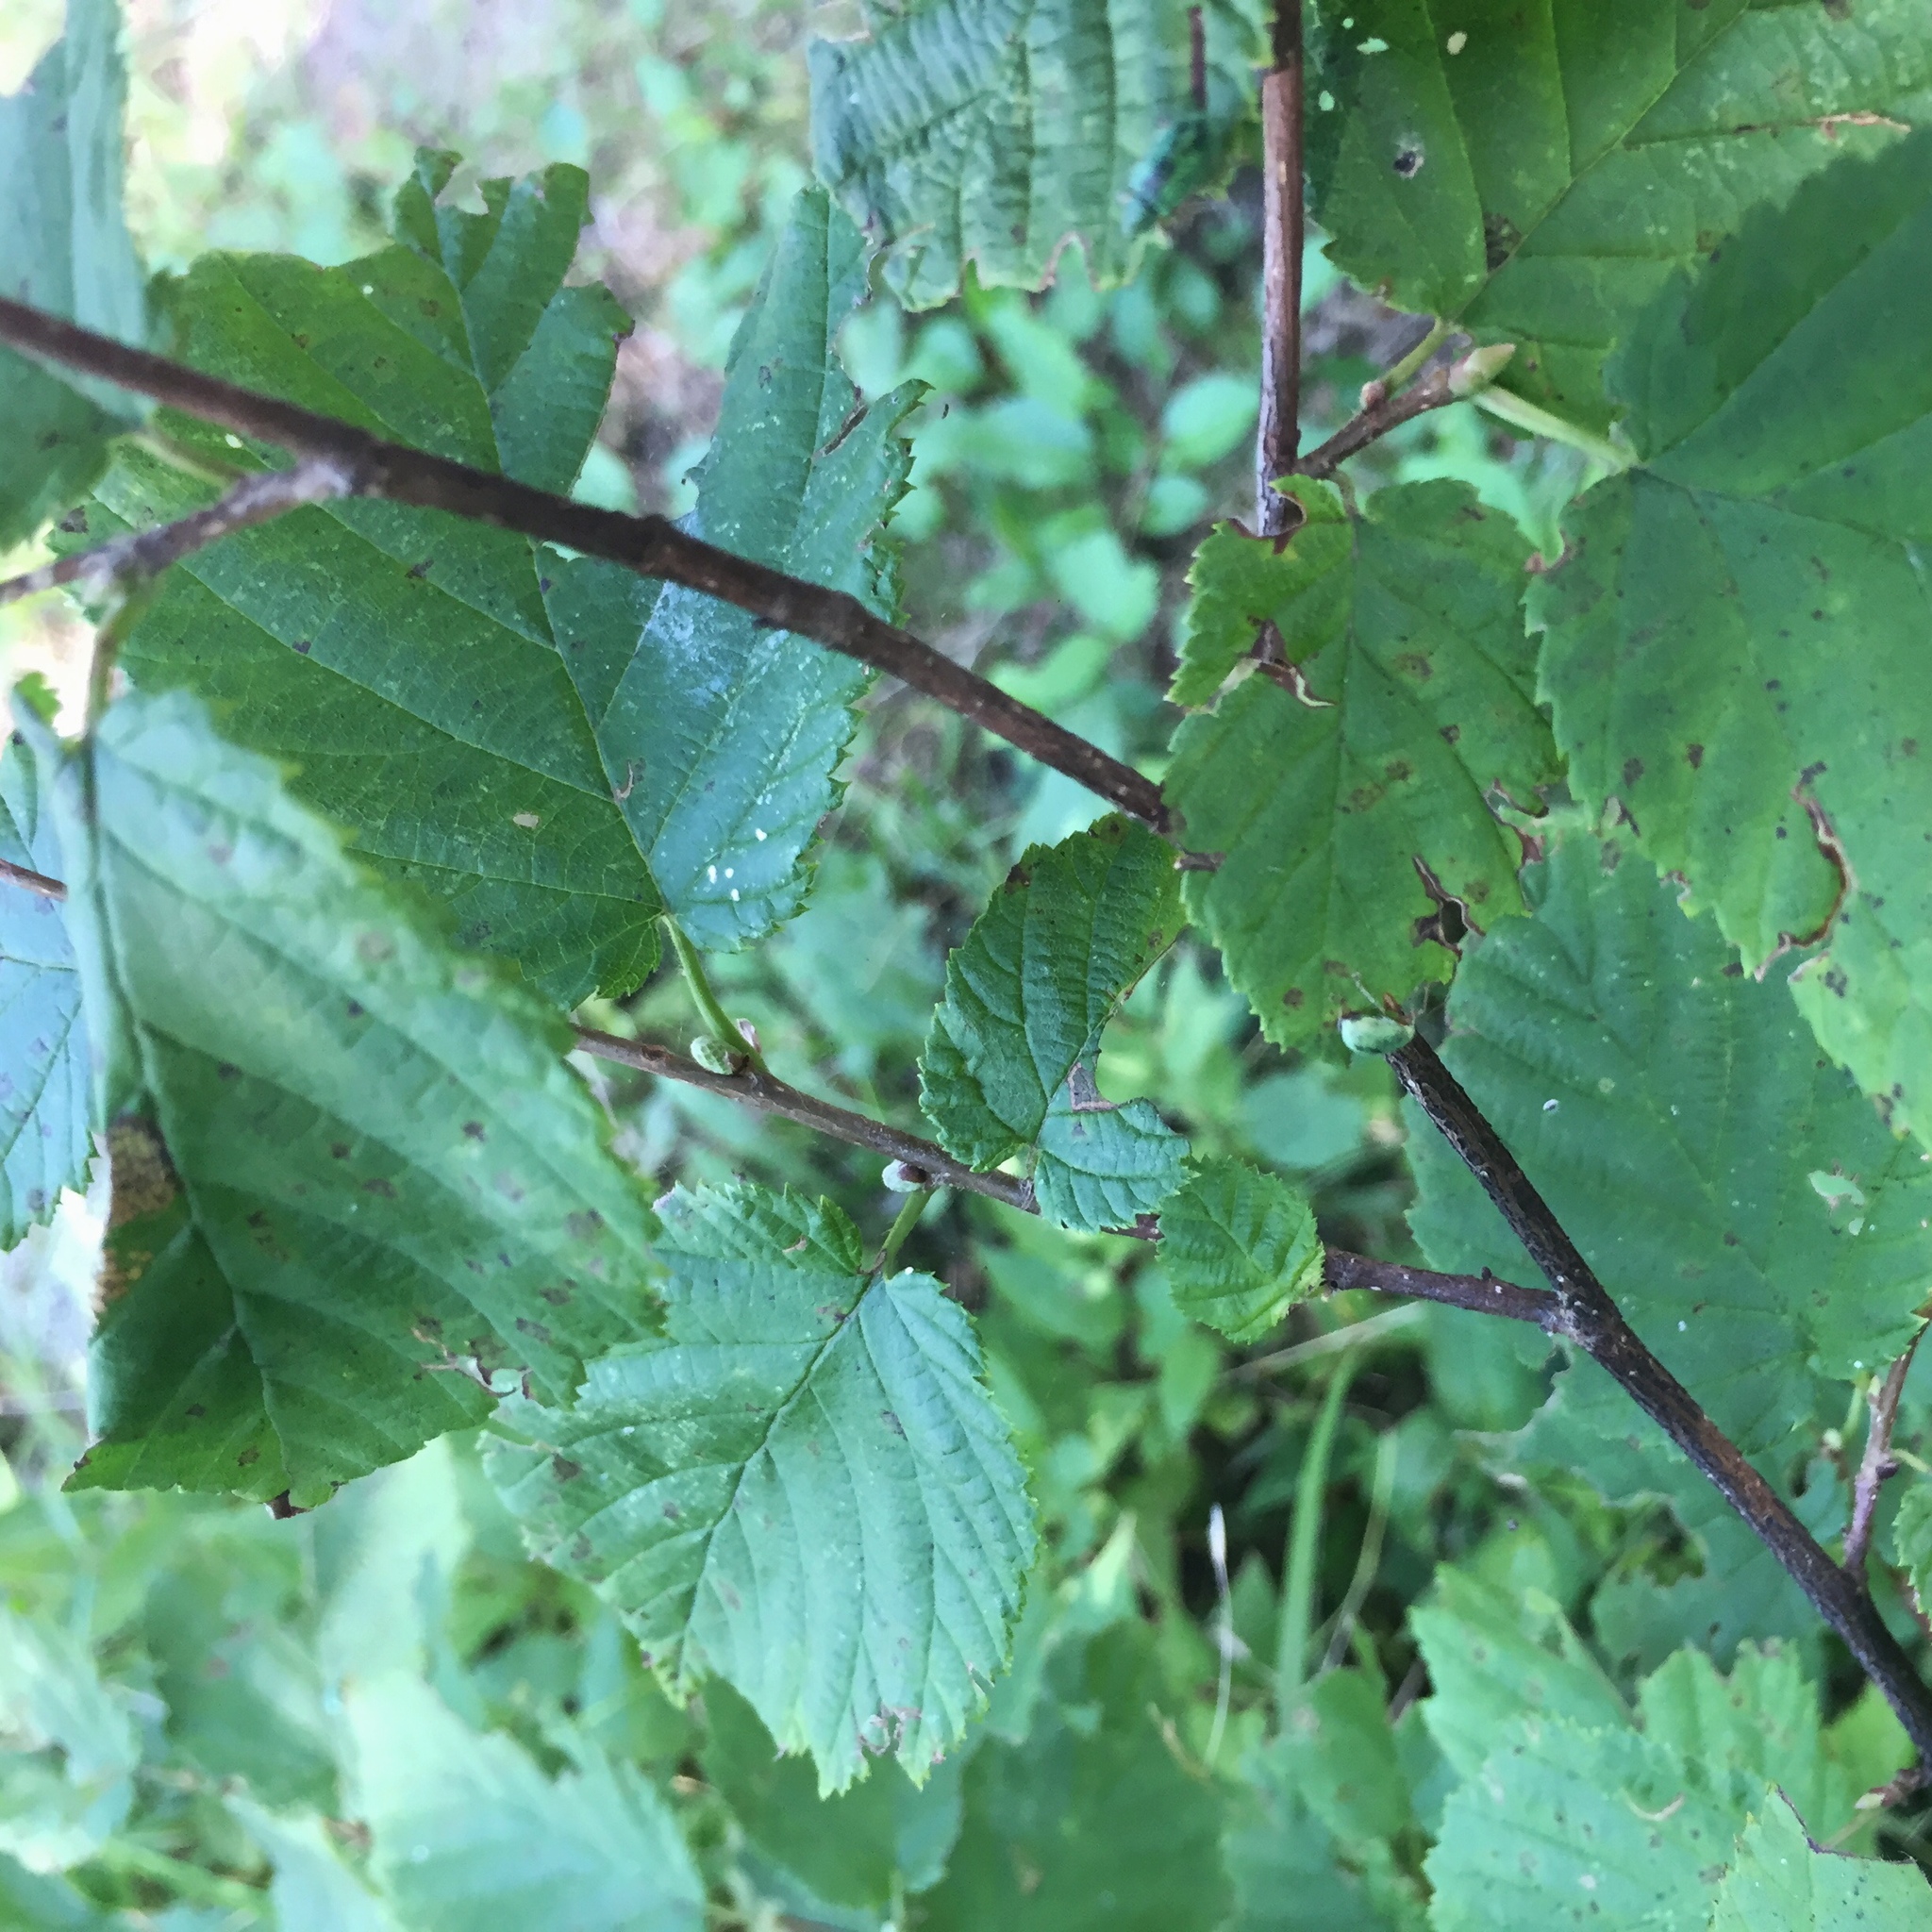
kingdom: Plantae
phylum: Tracheophyta
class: Magnoliopsida
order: Fagales
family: Betulaceae
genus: Corylus
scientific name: Corylus cornuta
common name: Beaked hazel
